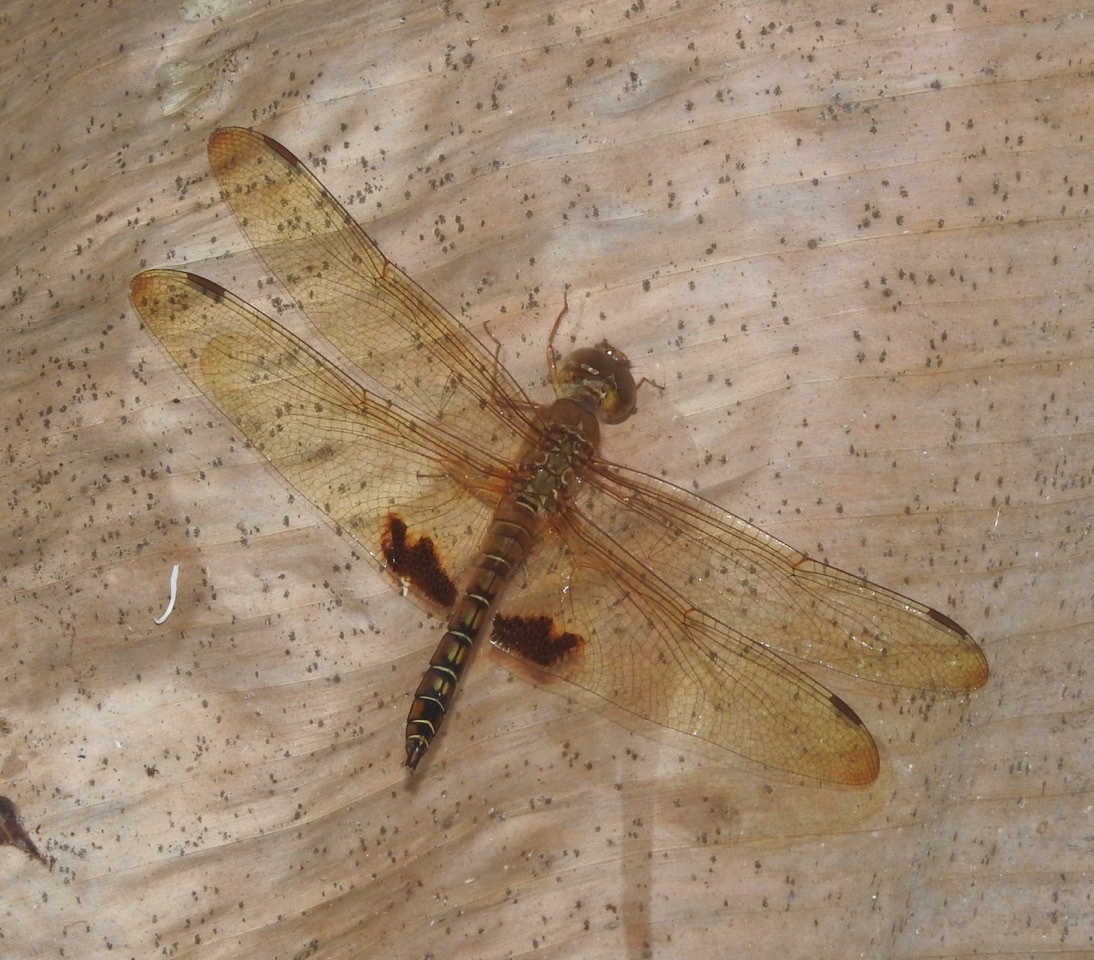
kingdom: Animalia
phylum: Arthropoda
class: Insecta
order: Odonata
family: Libellulidae
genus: Hydrobasileus
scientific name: Hydrobasileus croceus
